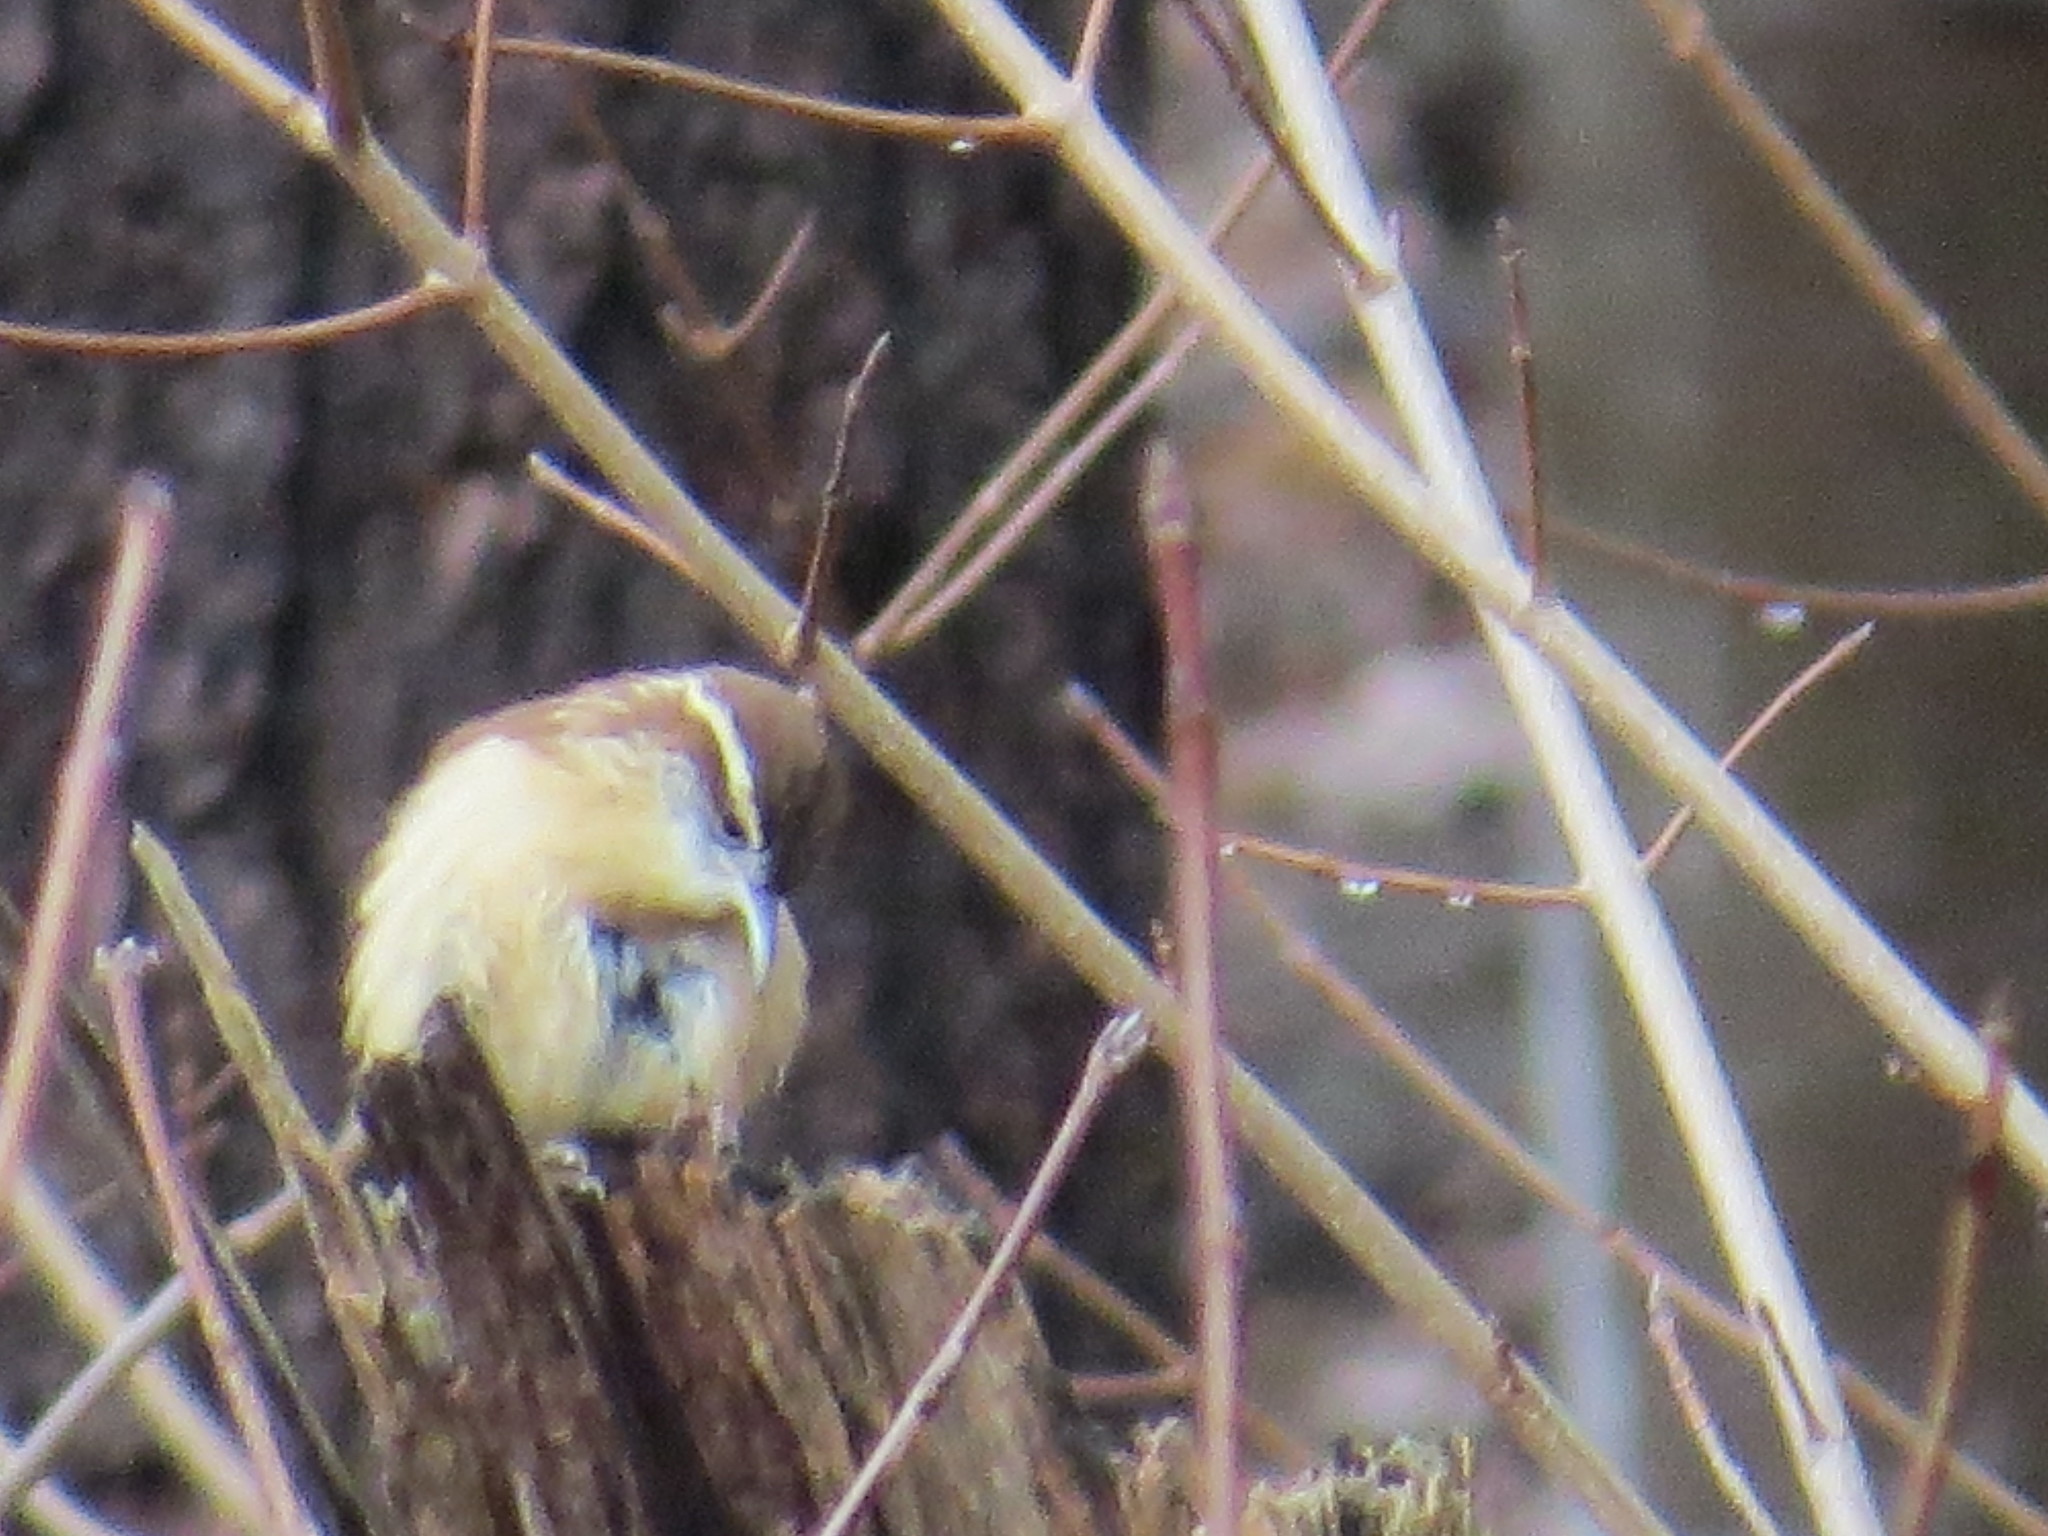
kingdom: Animalia
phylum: Chordata
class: Aves
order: Passeriformes
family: Troglodytidae
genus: Thryothorus
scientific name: Thryothorus ludovicianus
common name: Carolina wren
